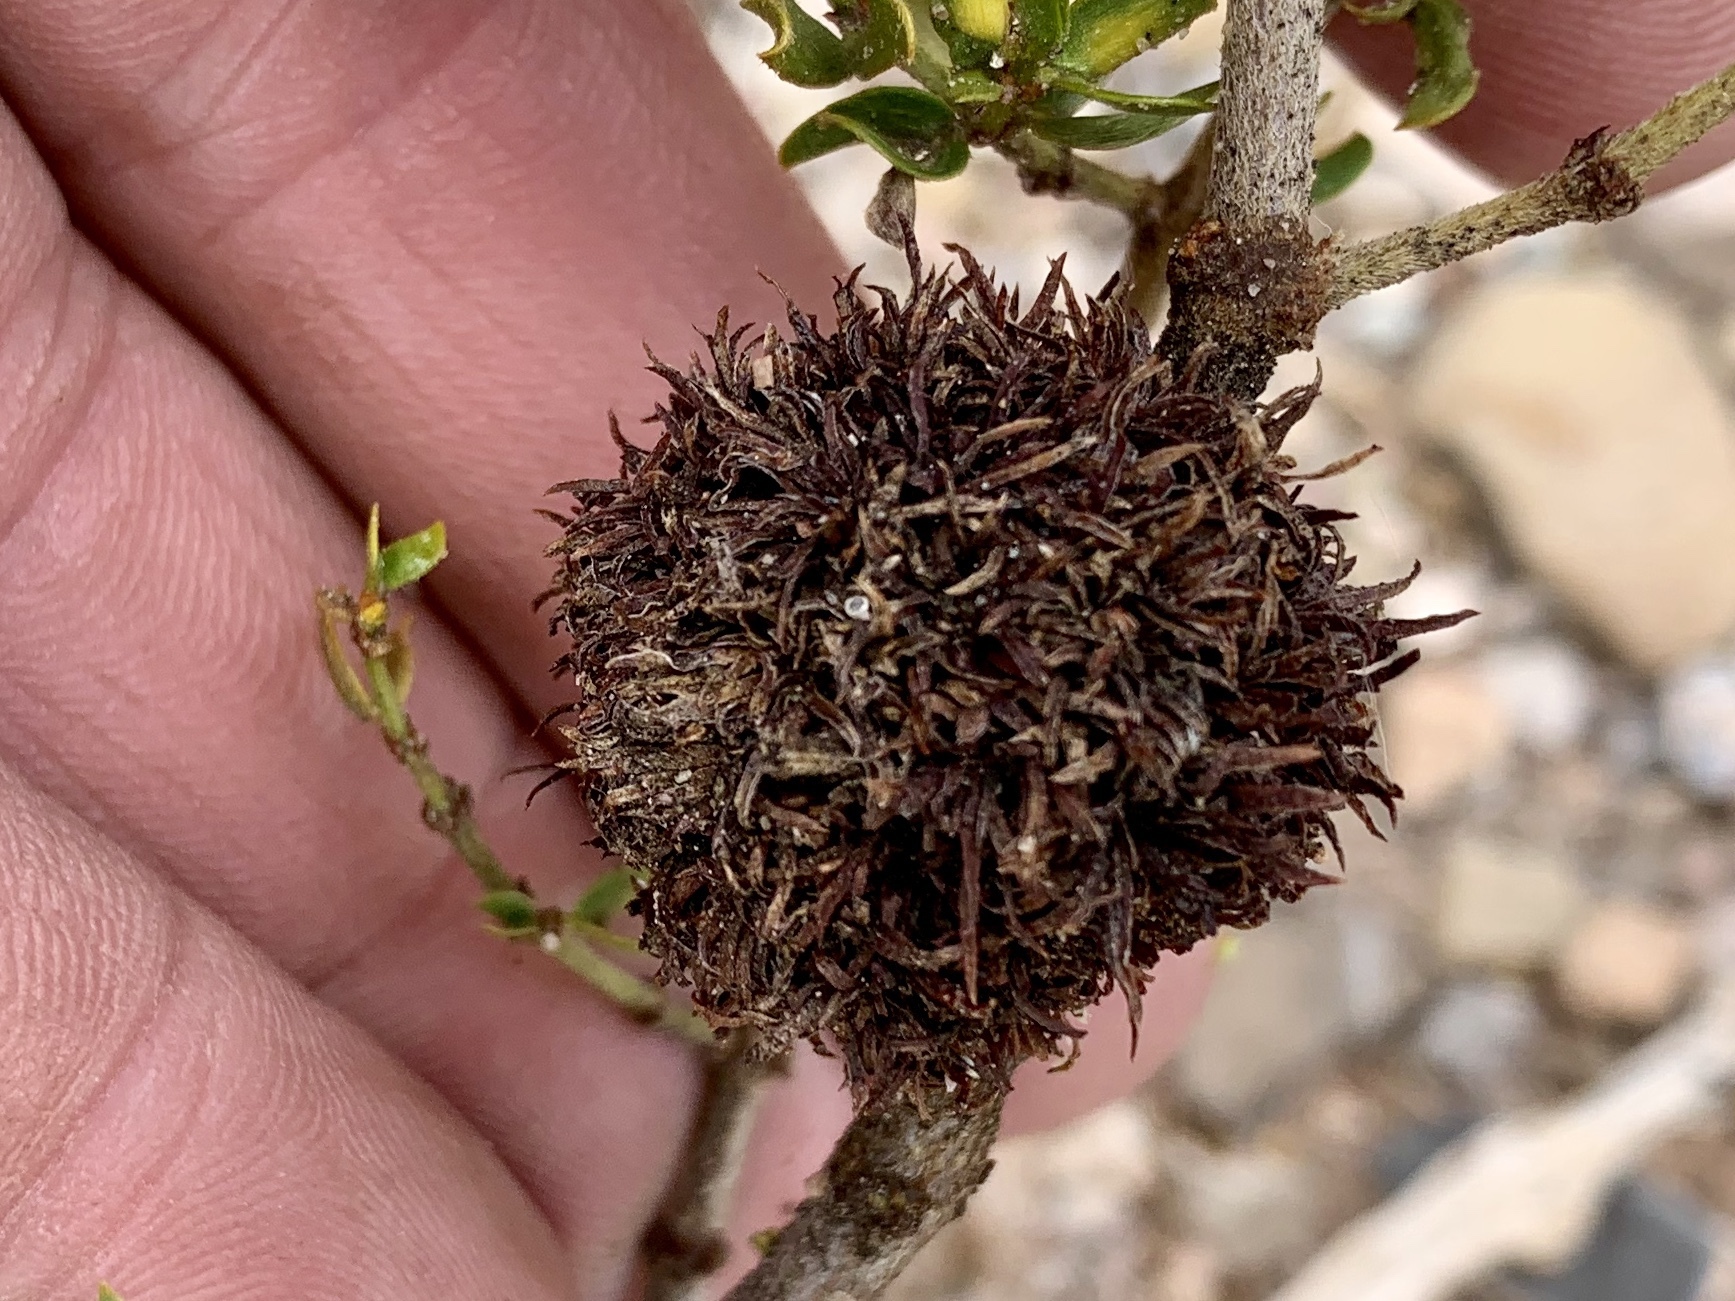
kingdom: Animalia
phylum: Arthropoda
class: Insecta
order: Diptera
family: Cecidomyiidae
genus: Asphondylia
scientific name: Asphondylia auripila
